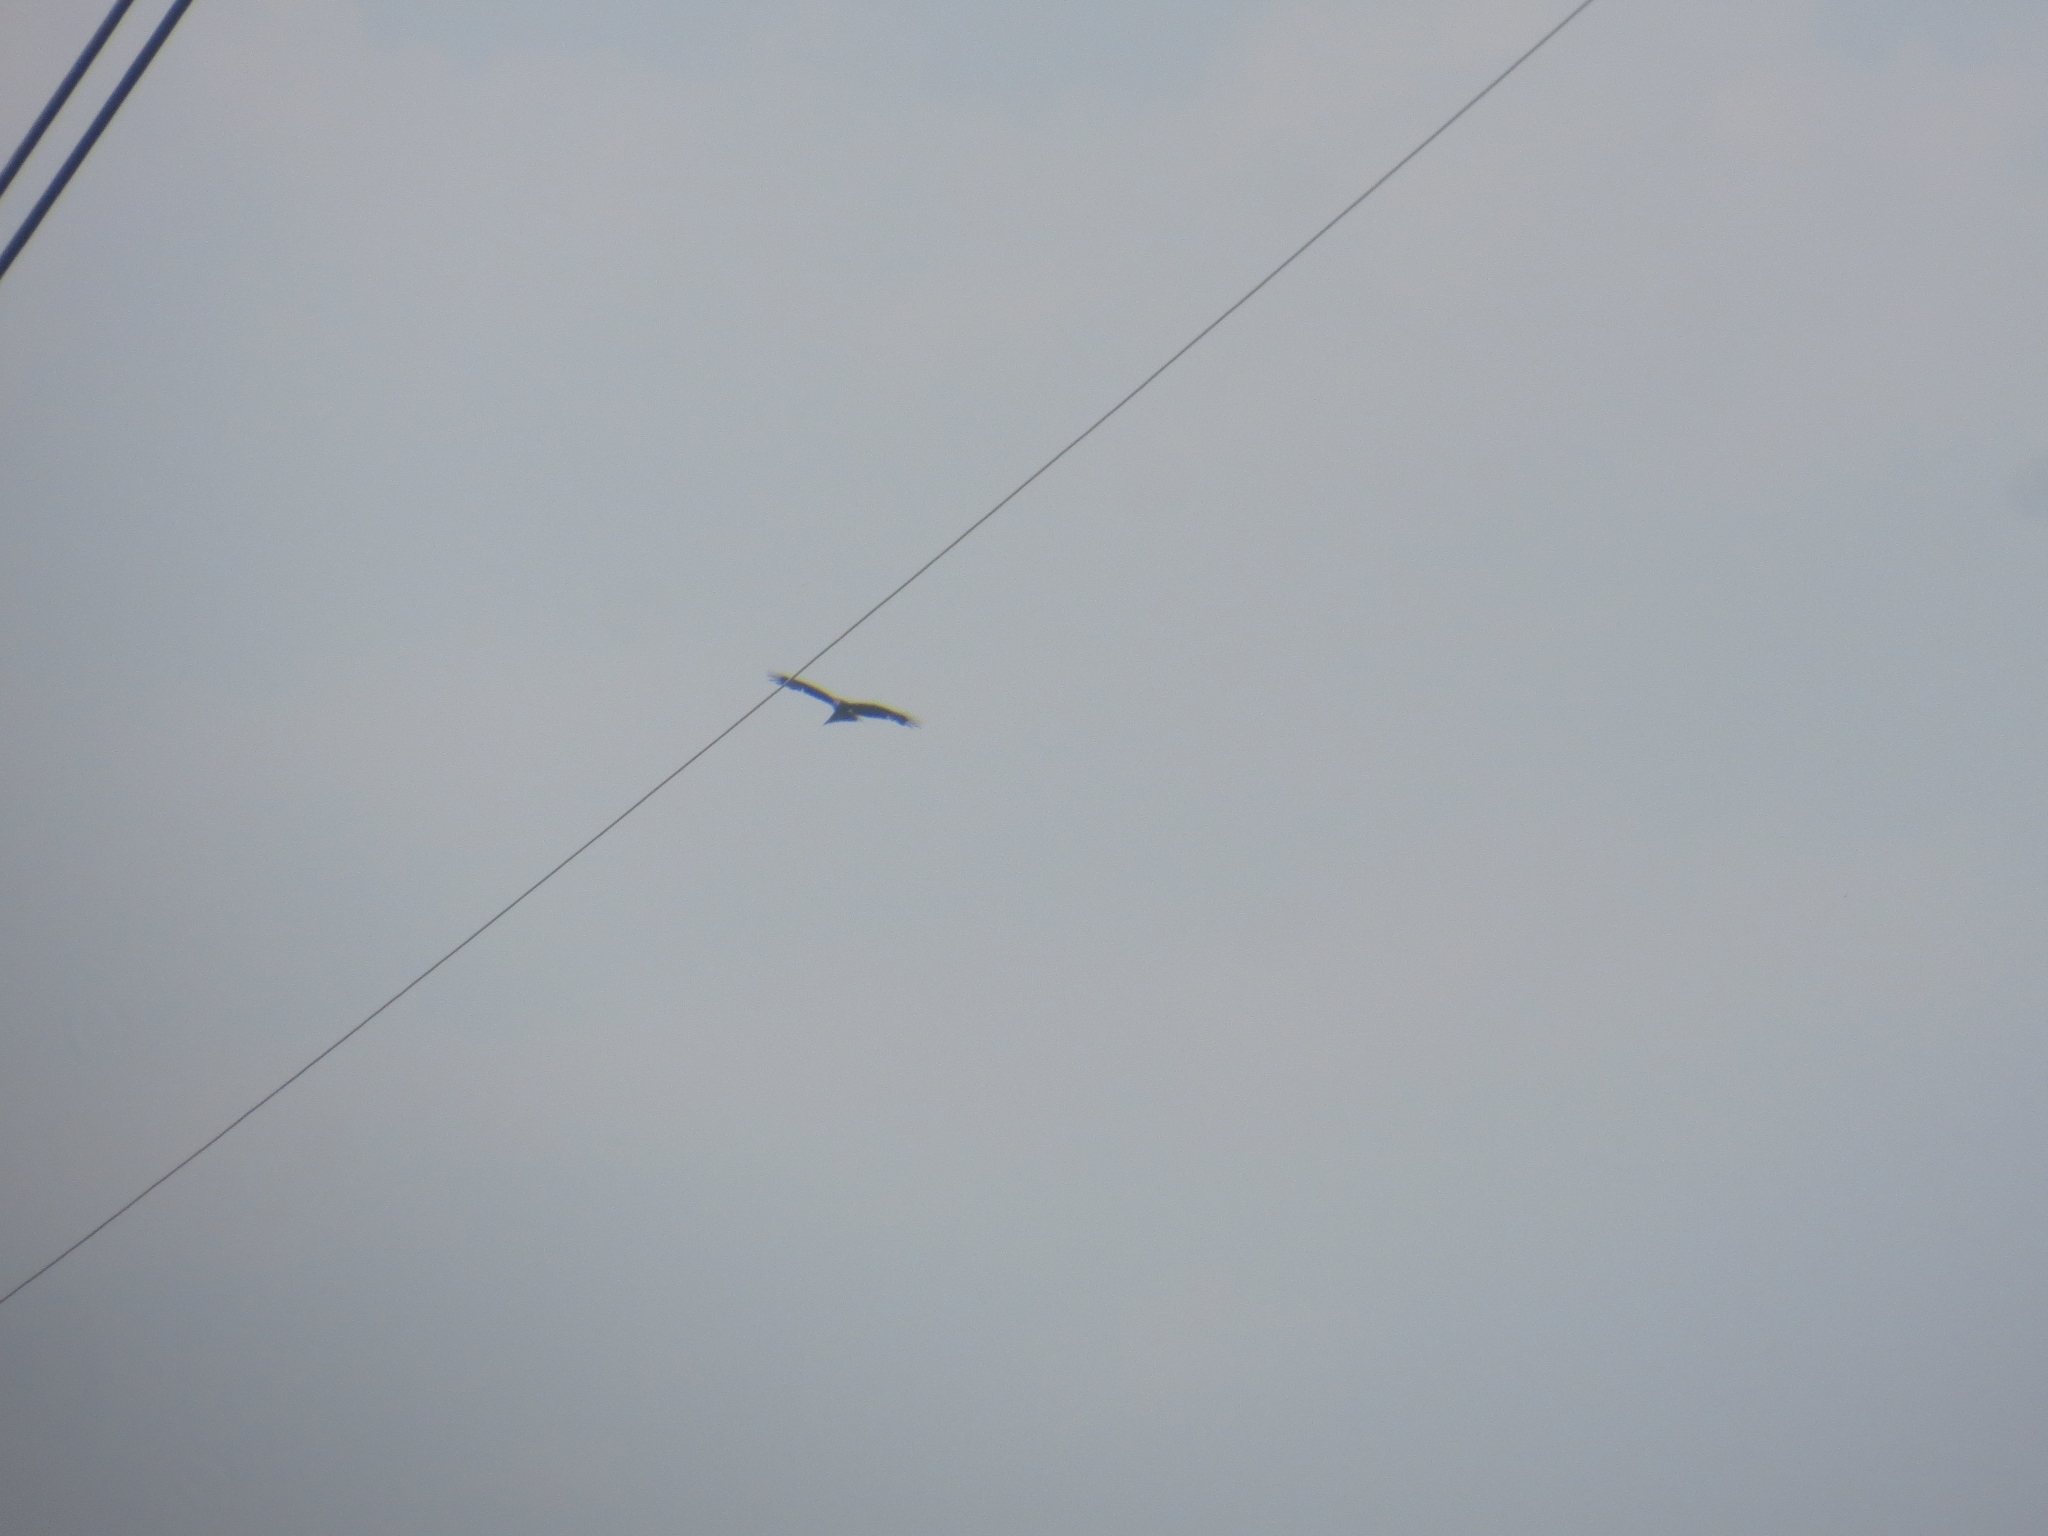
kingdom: Animalia
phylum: Chordata
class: Aves
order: Accipitriformes
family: Accipitridae
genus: Milvus
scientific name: Milvus migrans
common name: Black kite
